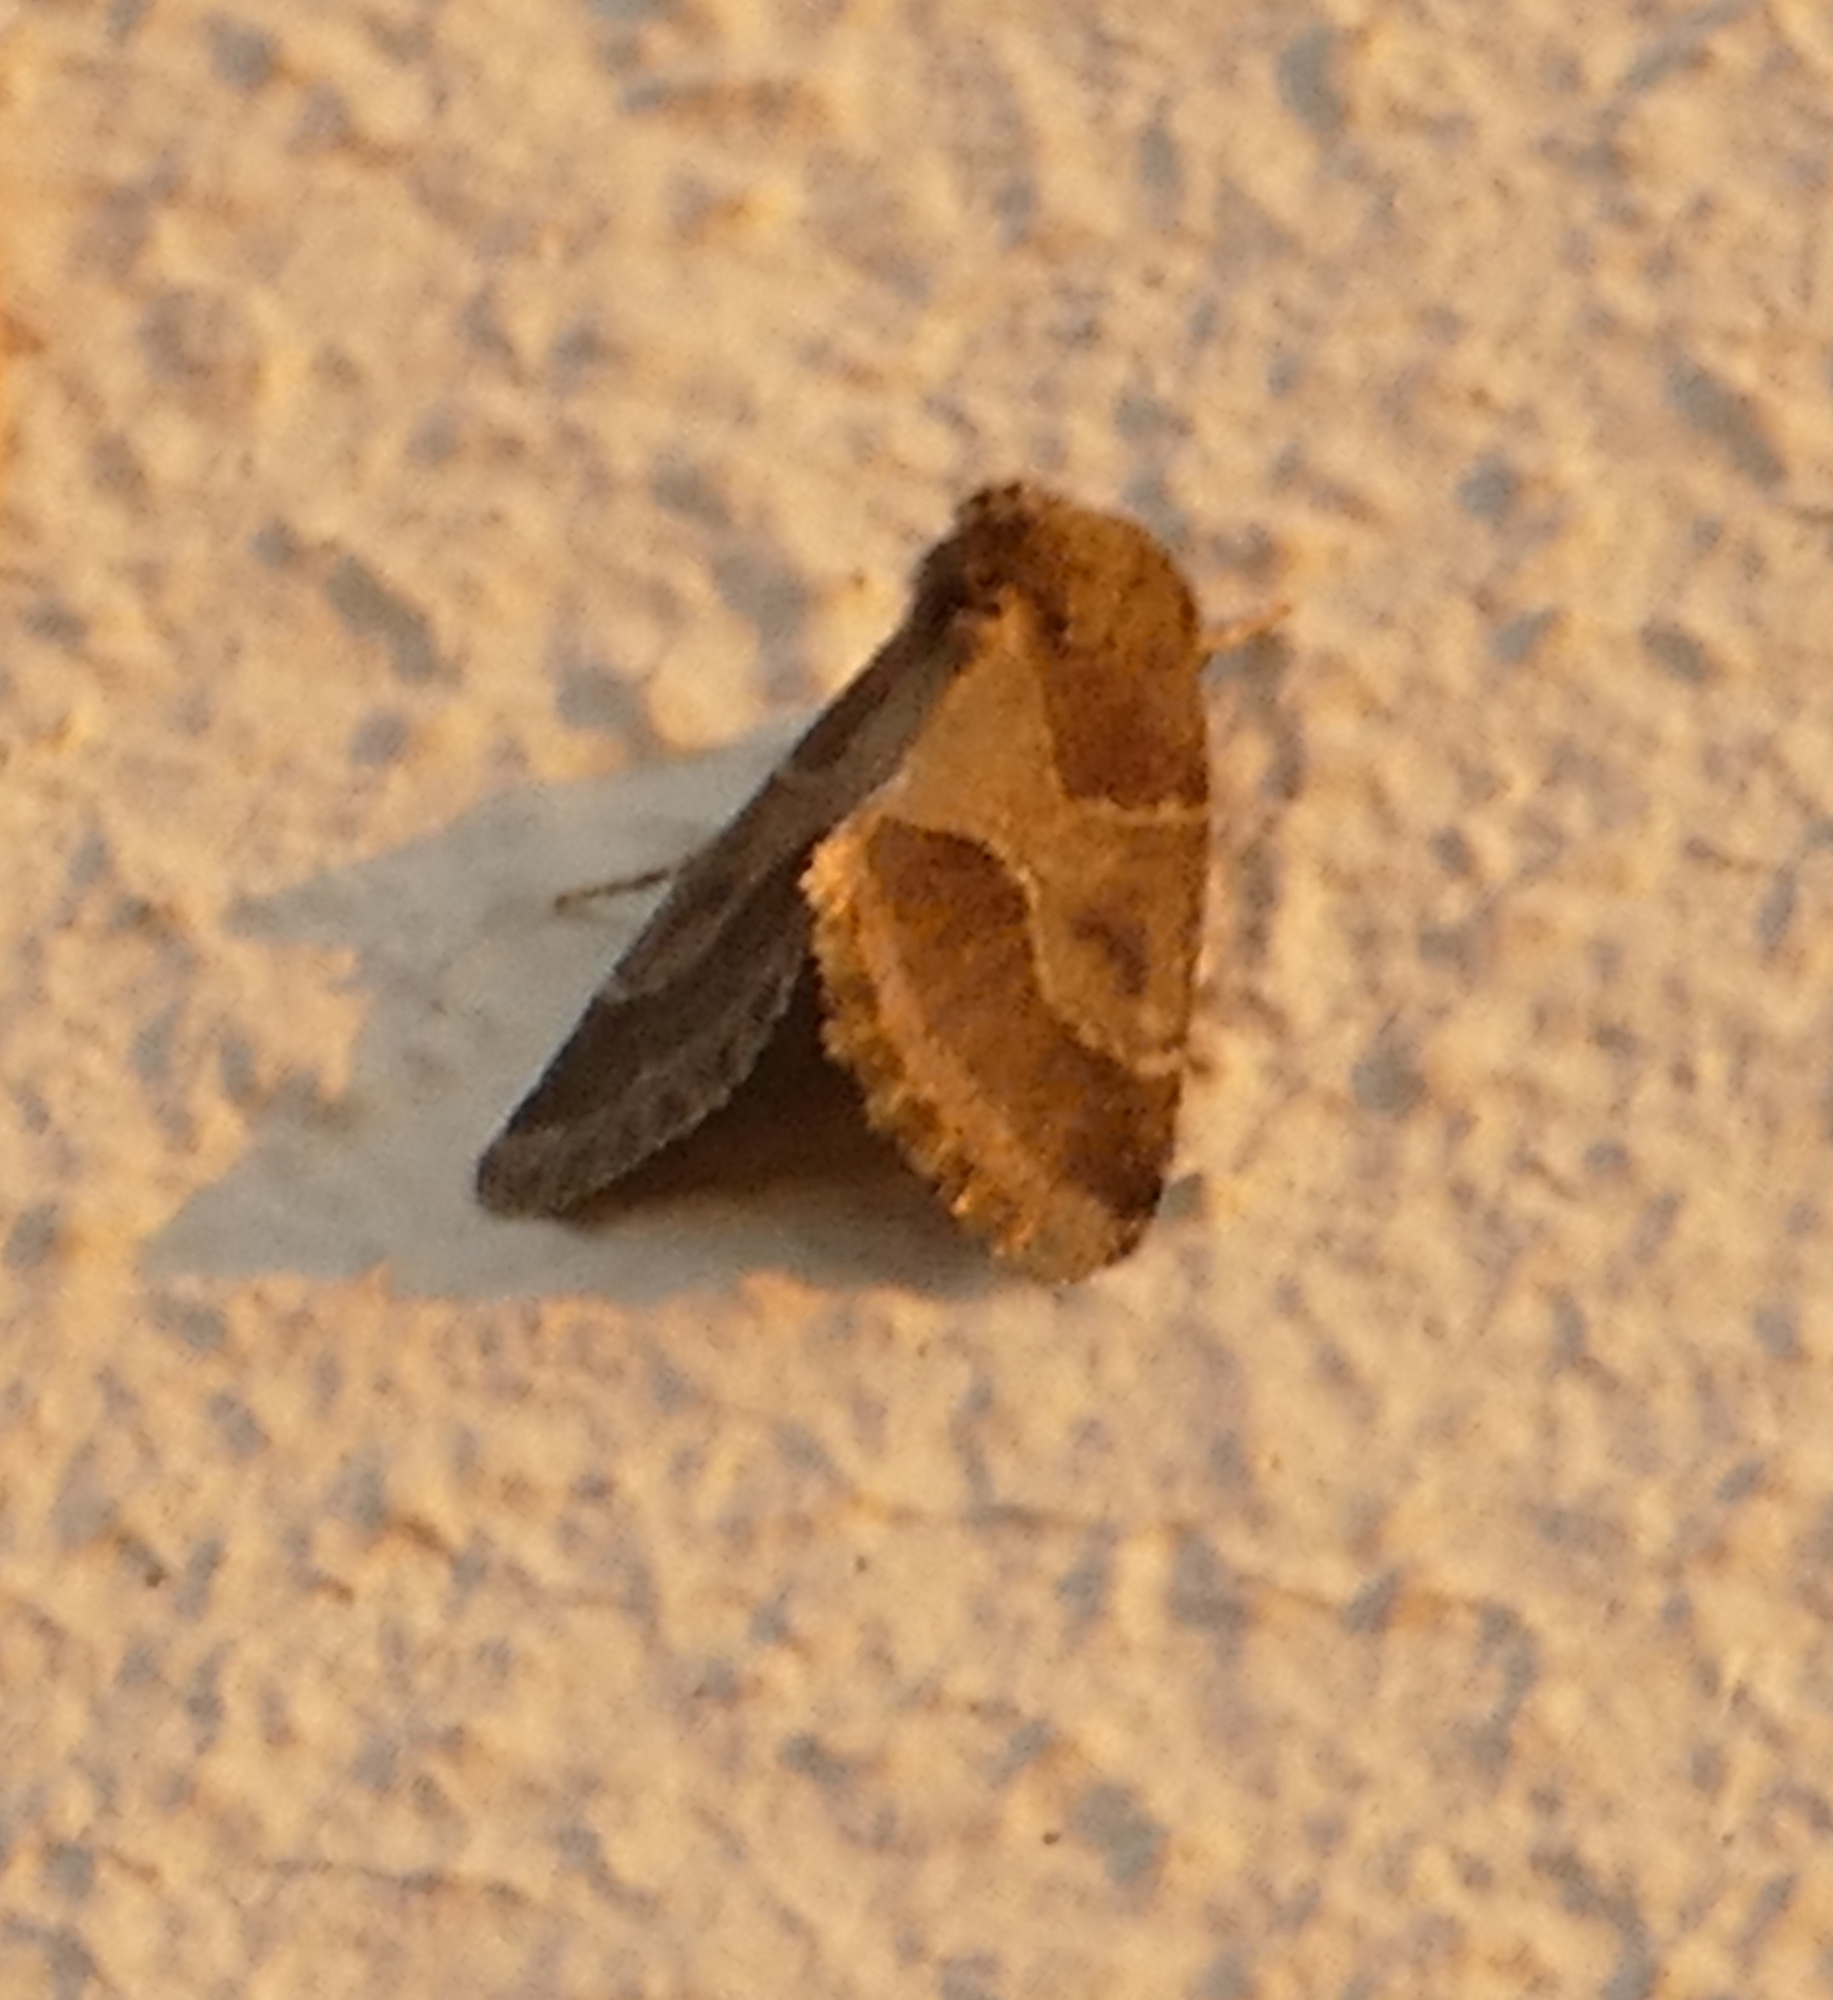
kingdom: Animalia
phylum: Arthropoda
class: Insecta
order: Lepidoptera
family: Noctuidae
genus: Schinia
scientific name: Schinia thoreaui
